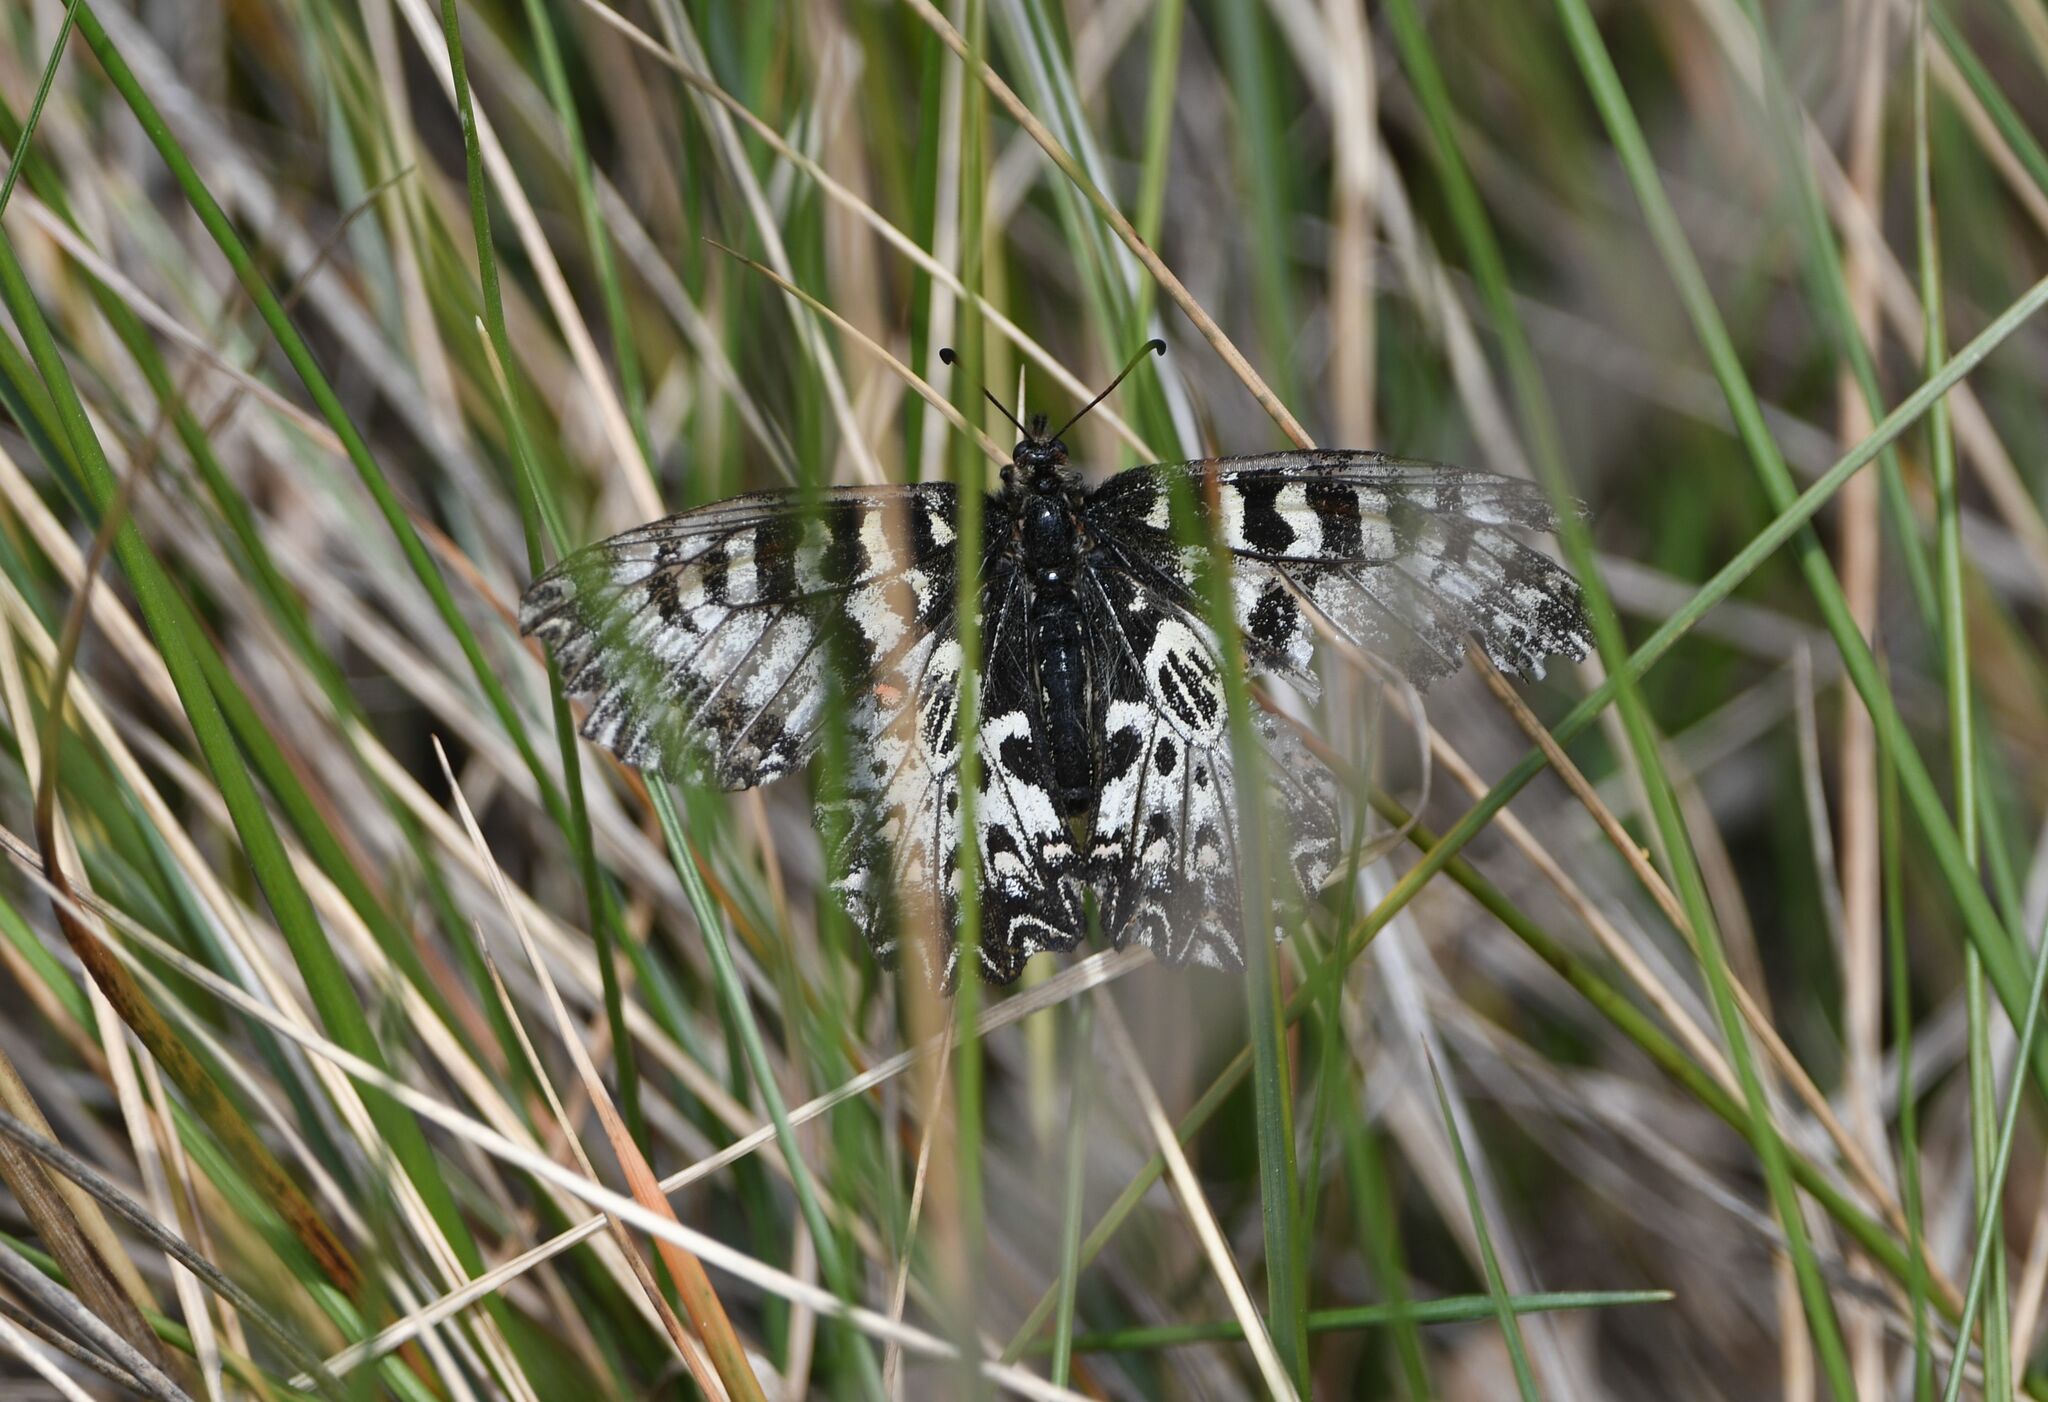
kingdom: Animalia
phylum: Arthropoda
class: Insecta
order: Lepidoptera
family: Papilionidae
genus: Zerynthia
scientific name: Zerynthia polyxena
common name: Southern festoon
